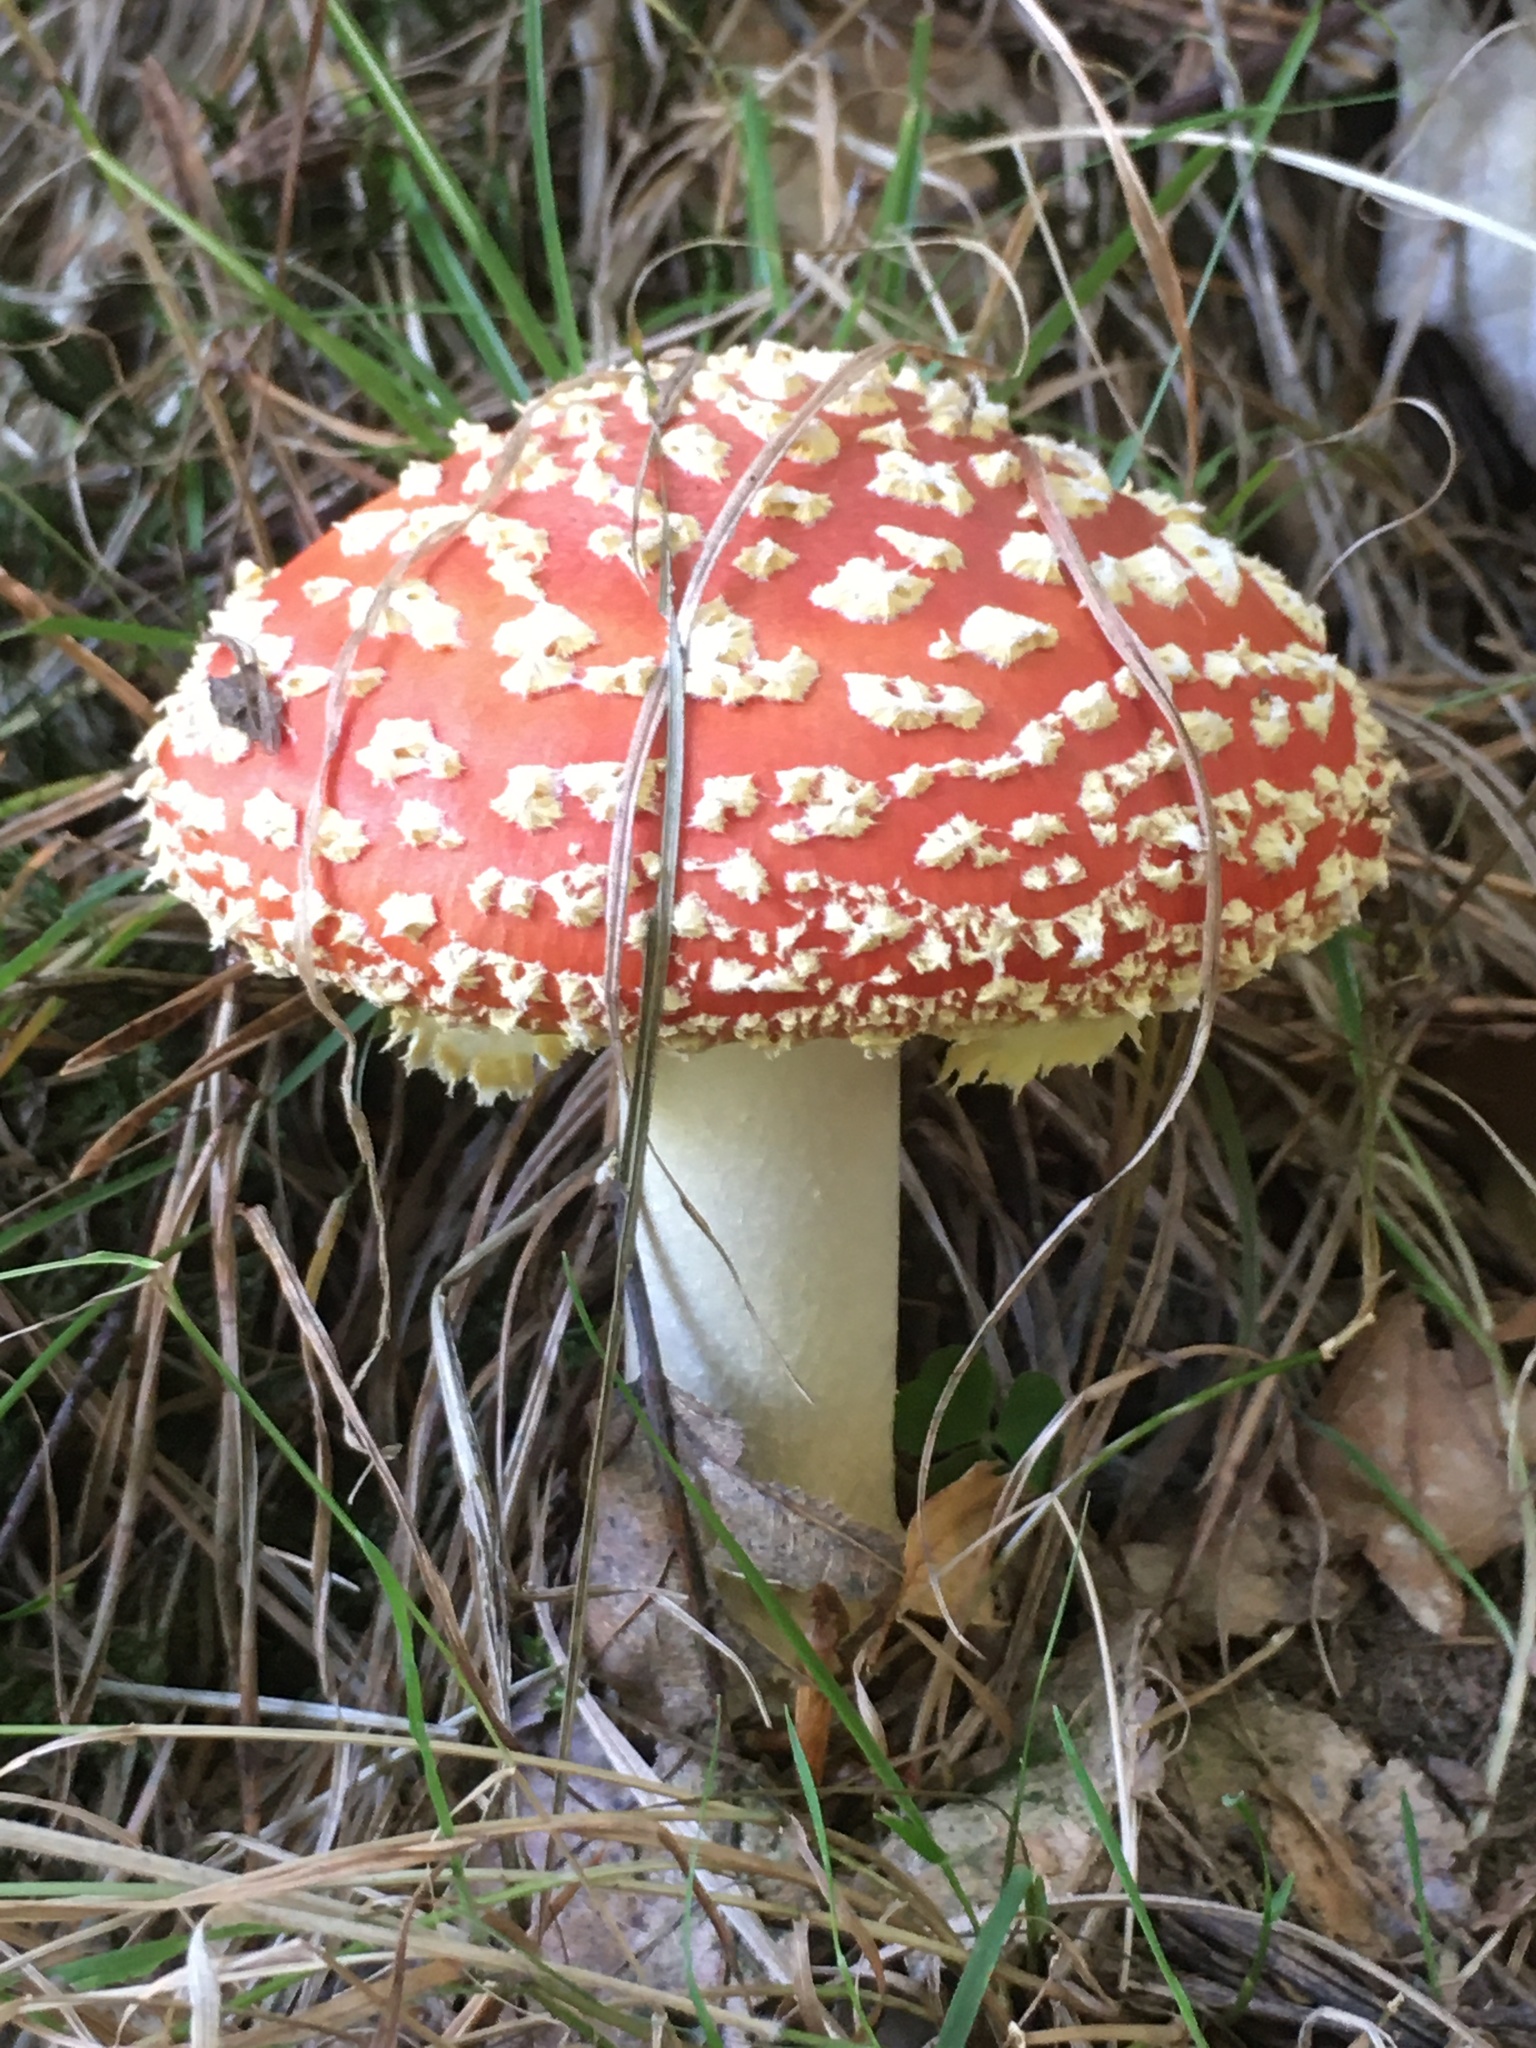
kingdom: Fungi
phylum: Basidiomycota
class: Agaricomycetes
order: Agaricales
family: Amanitaceae
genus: Amanita
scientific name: Amanita muscaria
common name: Fly agaric
